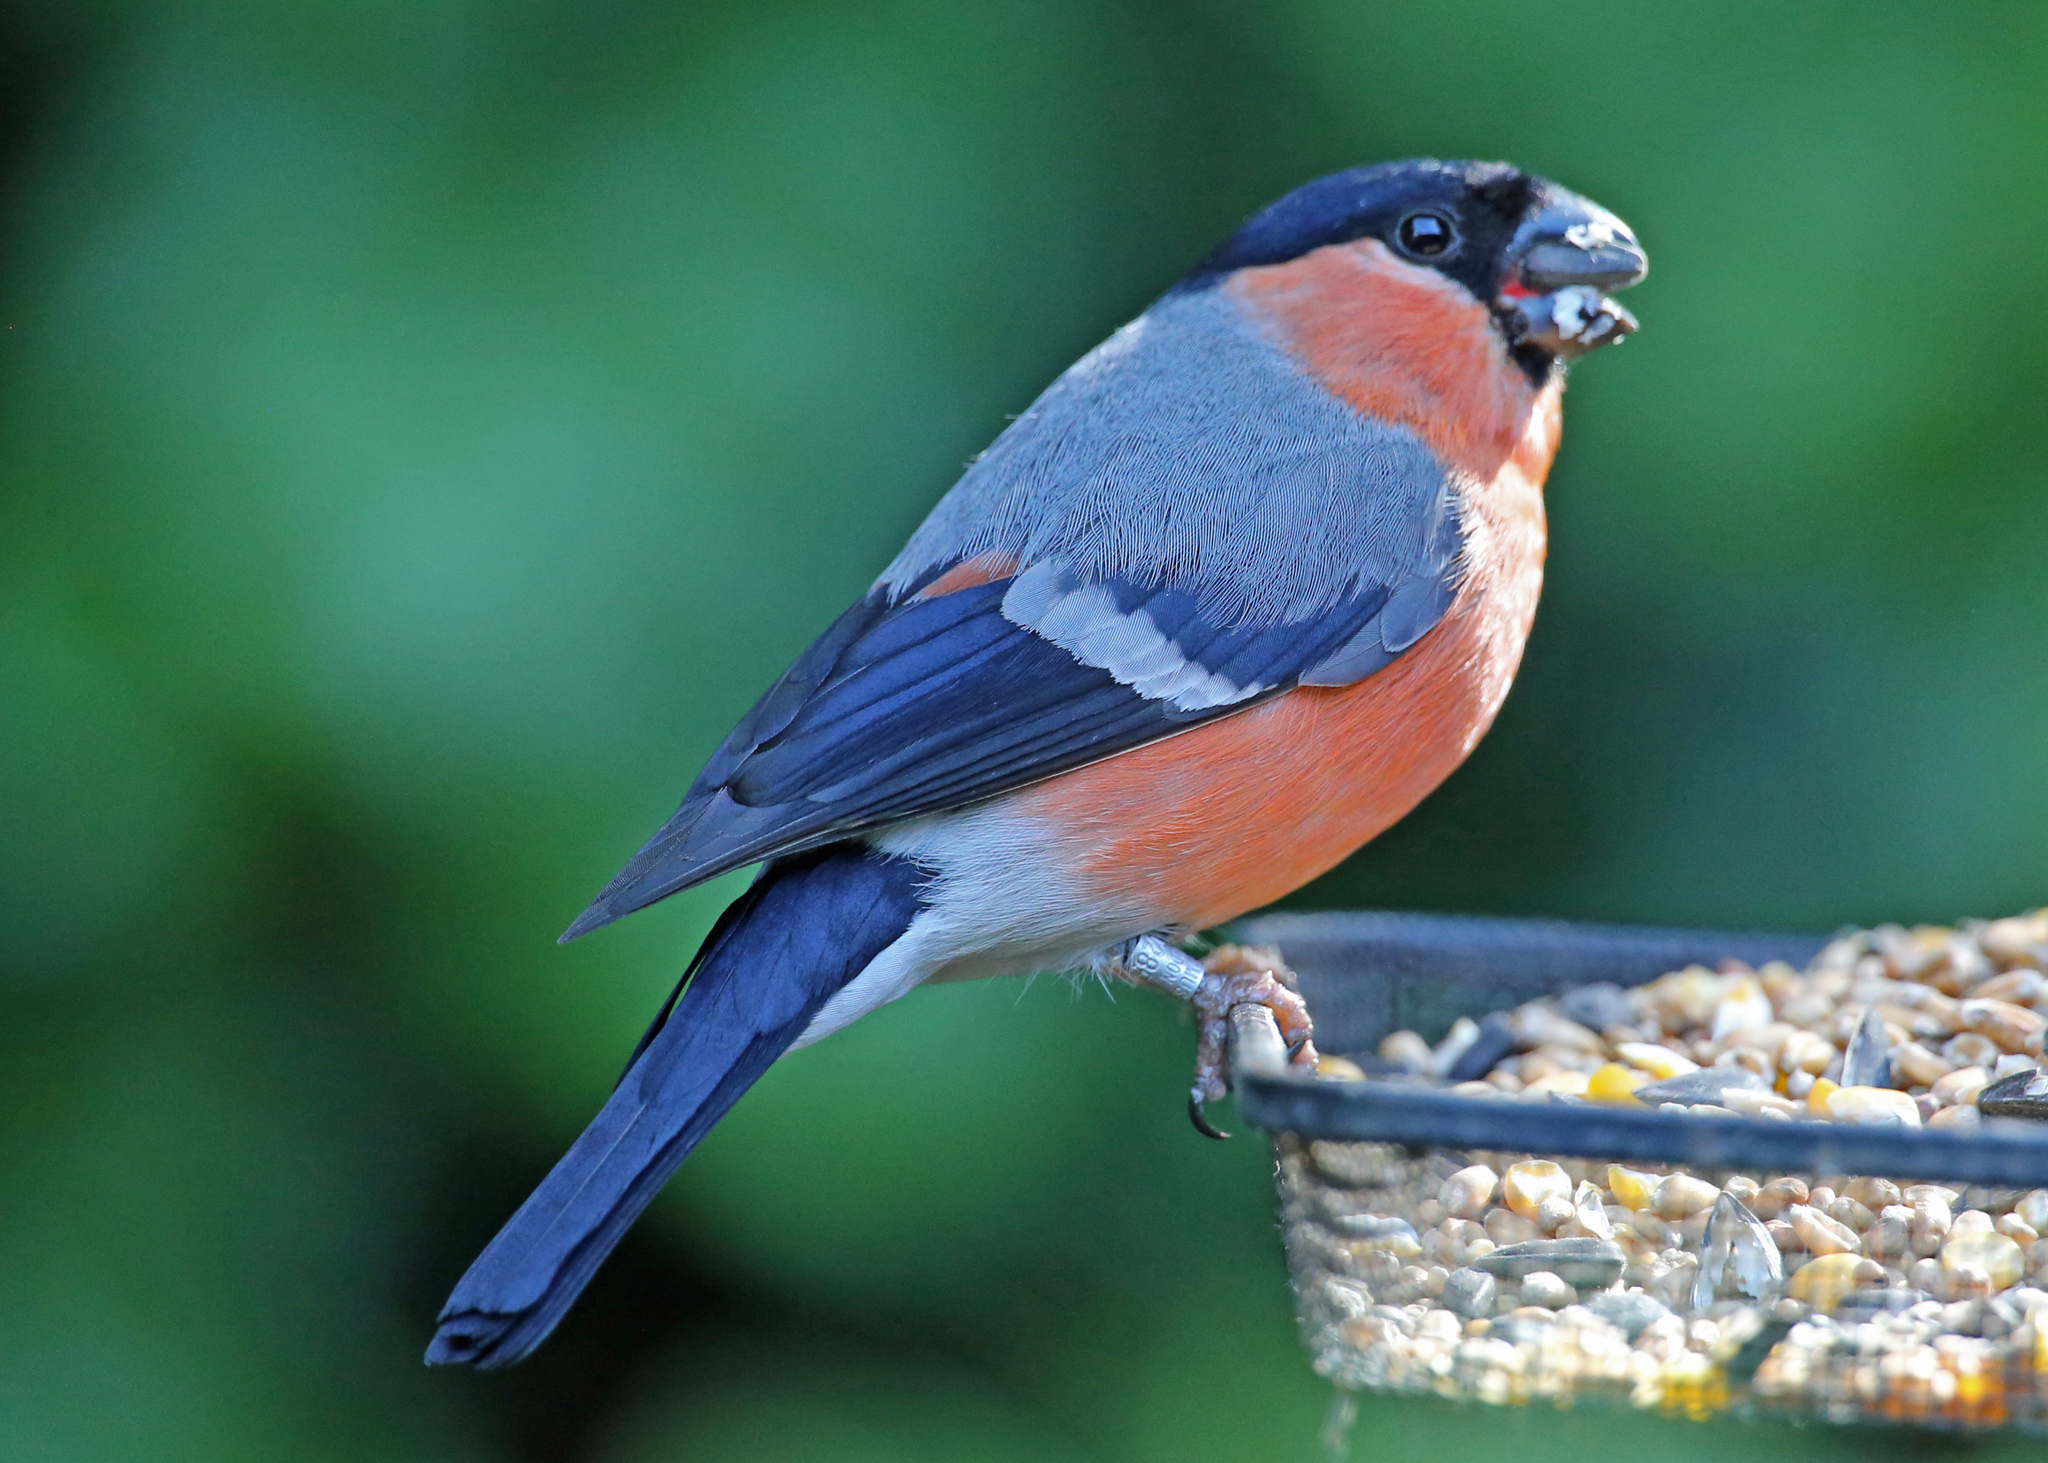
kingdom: Animalia
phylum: Chordata
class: Aves
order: Passeriformes
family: Fringillidae
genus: Pyrrhula
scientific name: Pyrrhula pyrrhula
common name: Eurasian bullfinch
